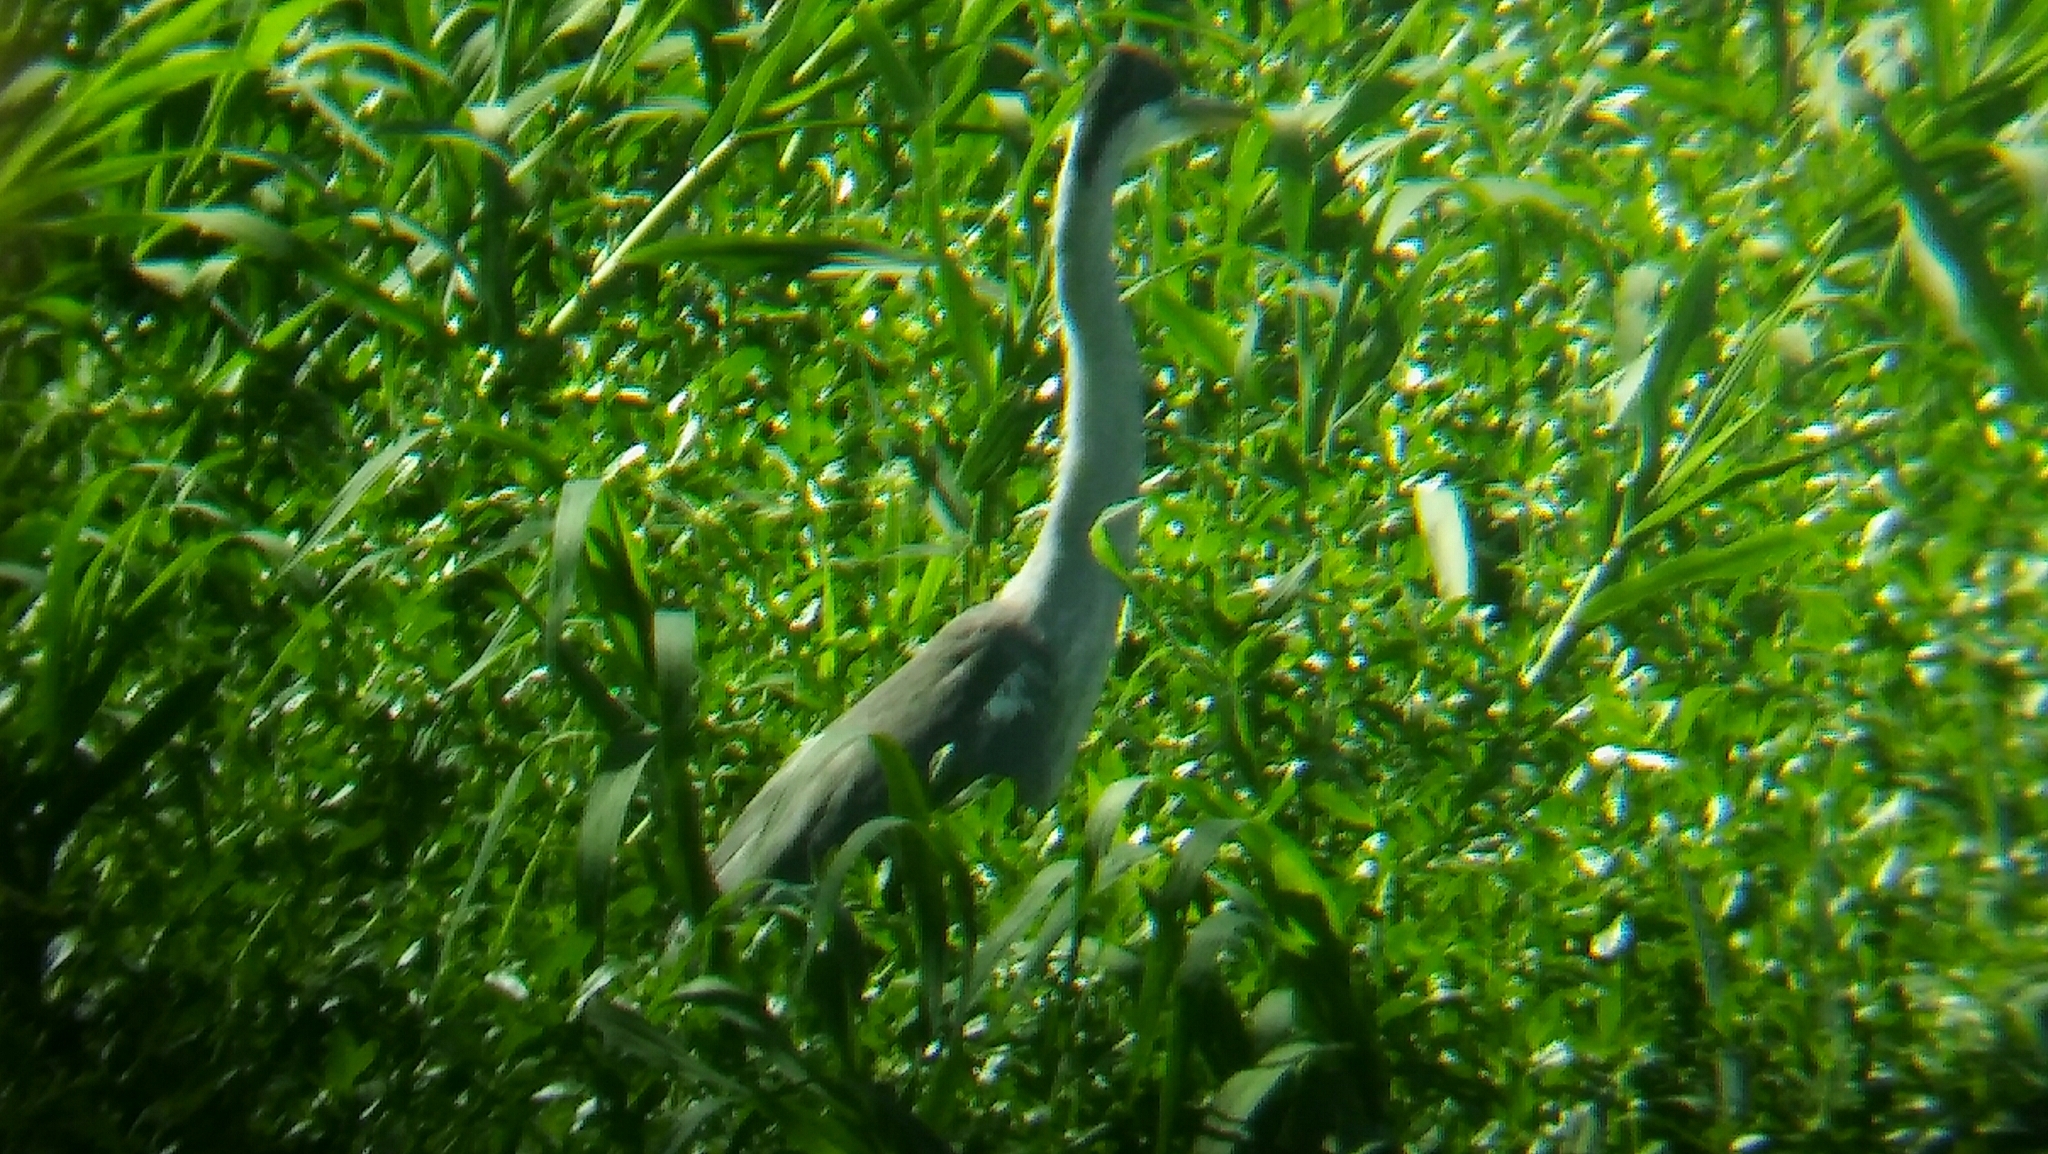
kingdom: Animalia
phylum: Chordata
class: Aves
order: Pelecaniformes
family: Ardeidae
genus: Ardea
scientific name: Ardea cocoi
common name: Cocoi heron
